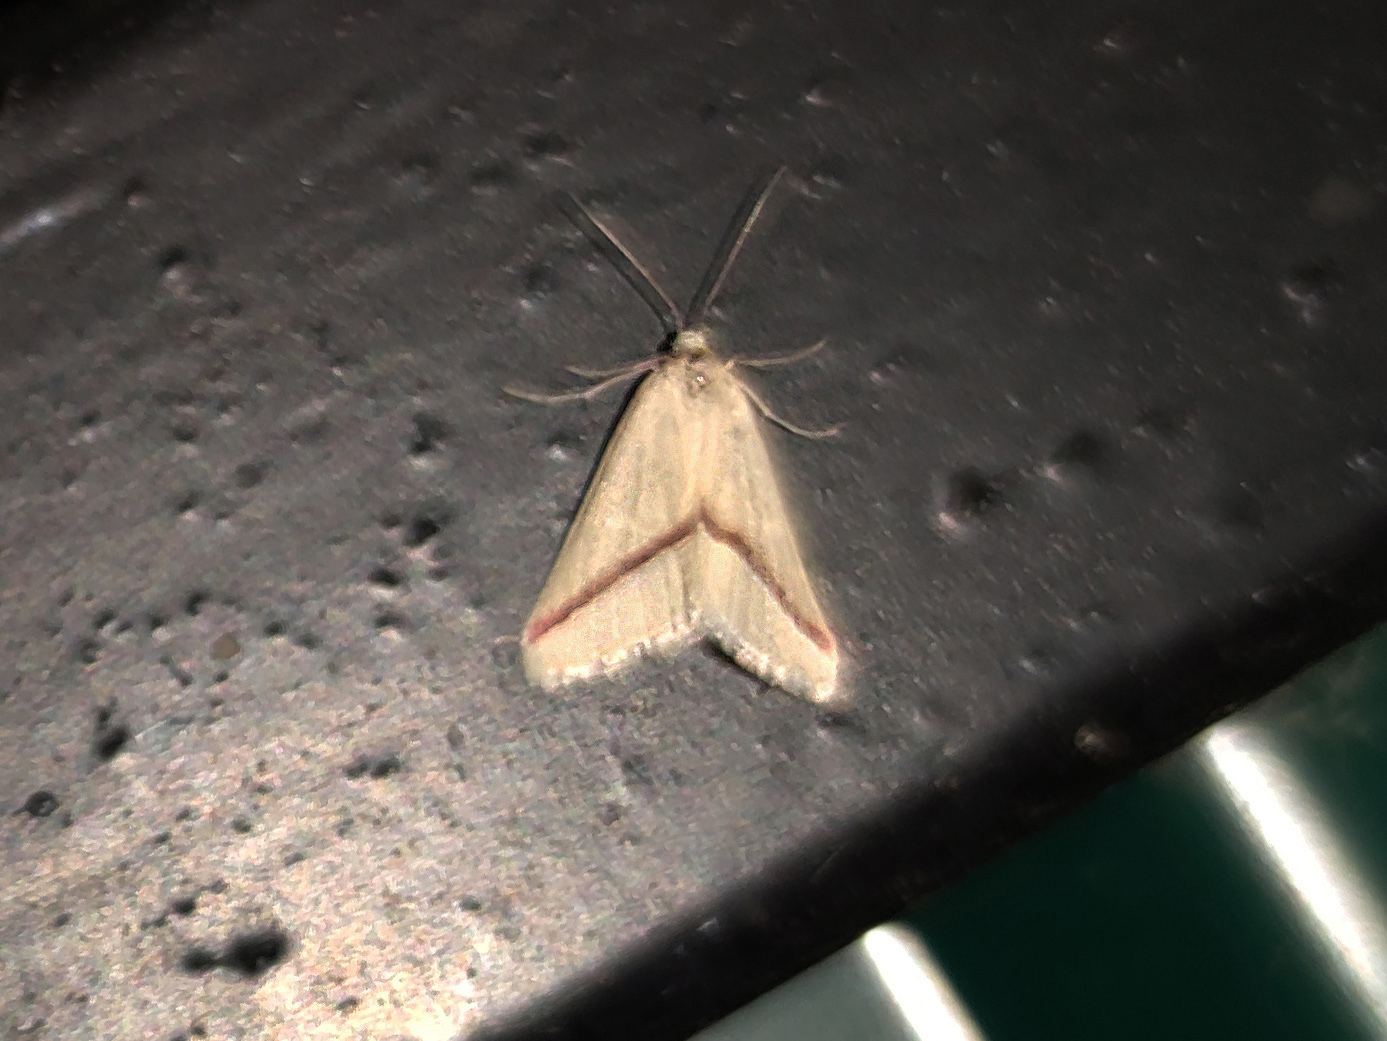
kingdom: Animalia
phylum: Arthropoda
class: Insecta
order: Lepidoptera
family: Geometridae
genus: Casilda
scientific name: Casilda antophilaria
